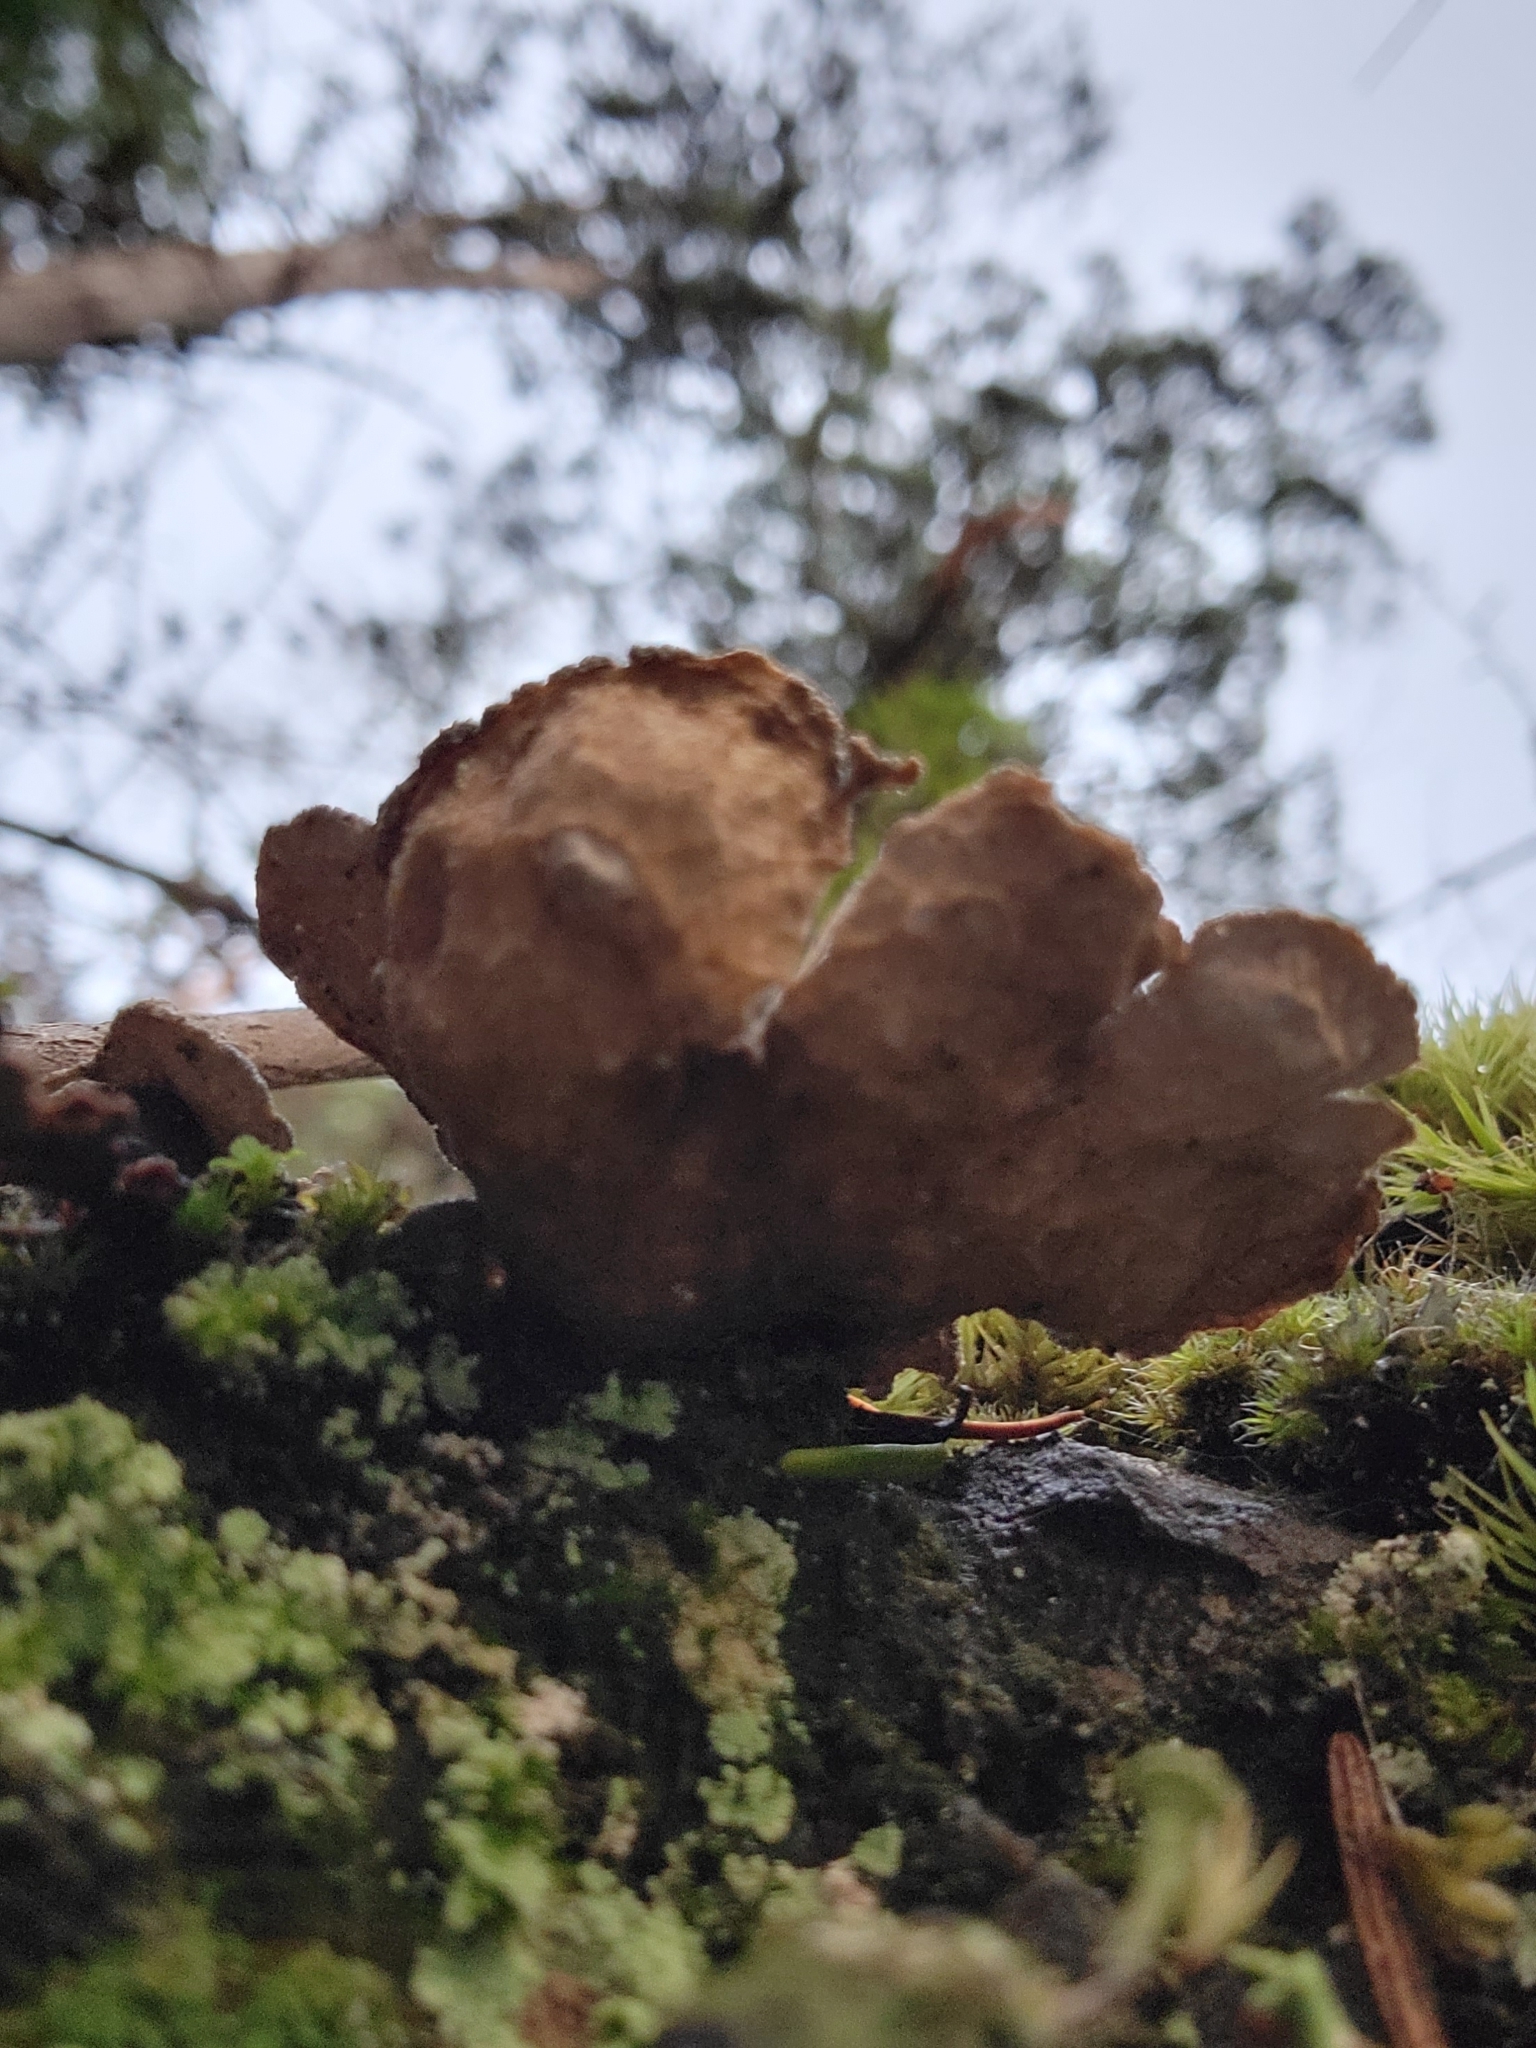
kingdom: Fungi
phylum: Ascomycota
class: Lecanoromycetes
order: Peltigerales
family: Lobariaceae
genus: Sticta
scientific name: Sticta limbata
